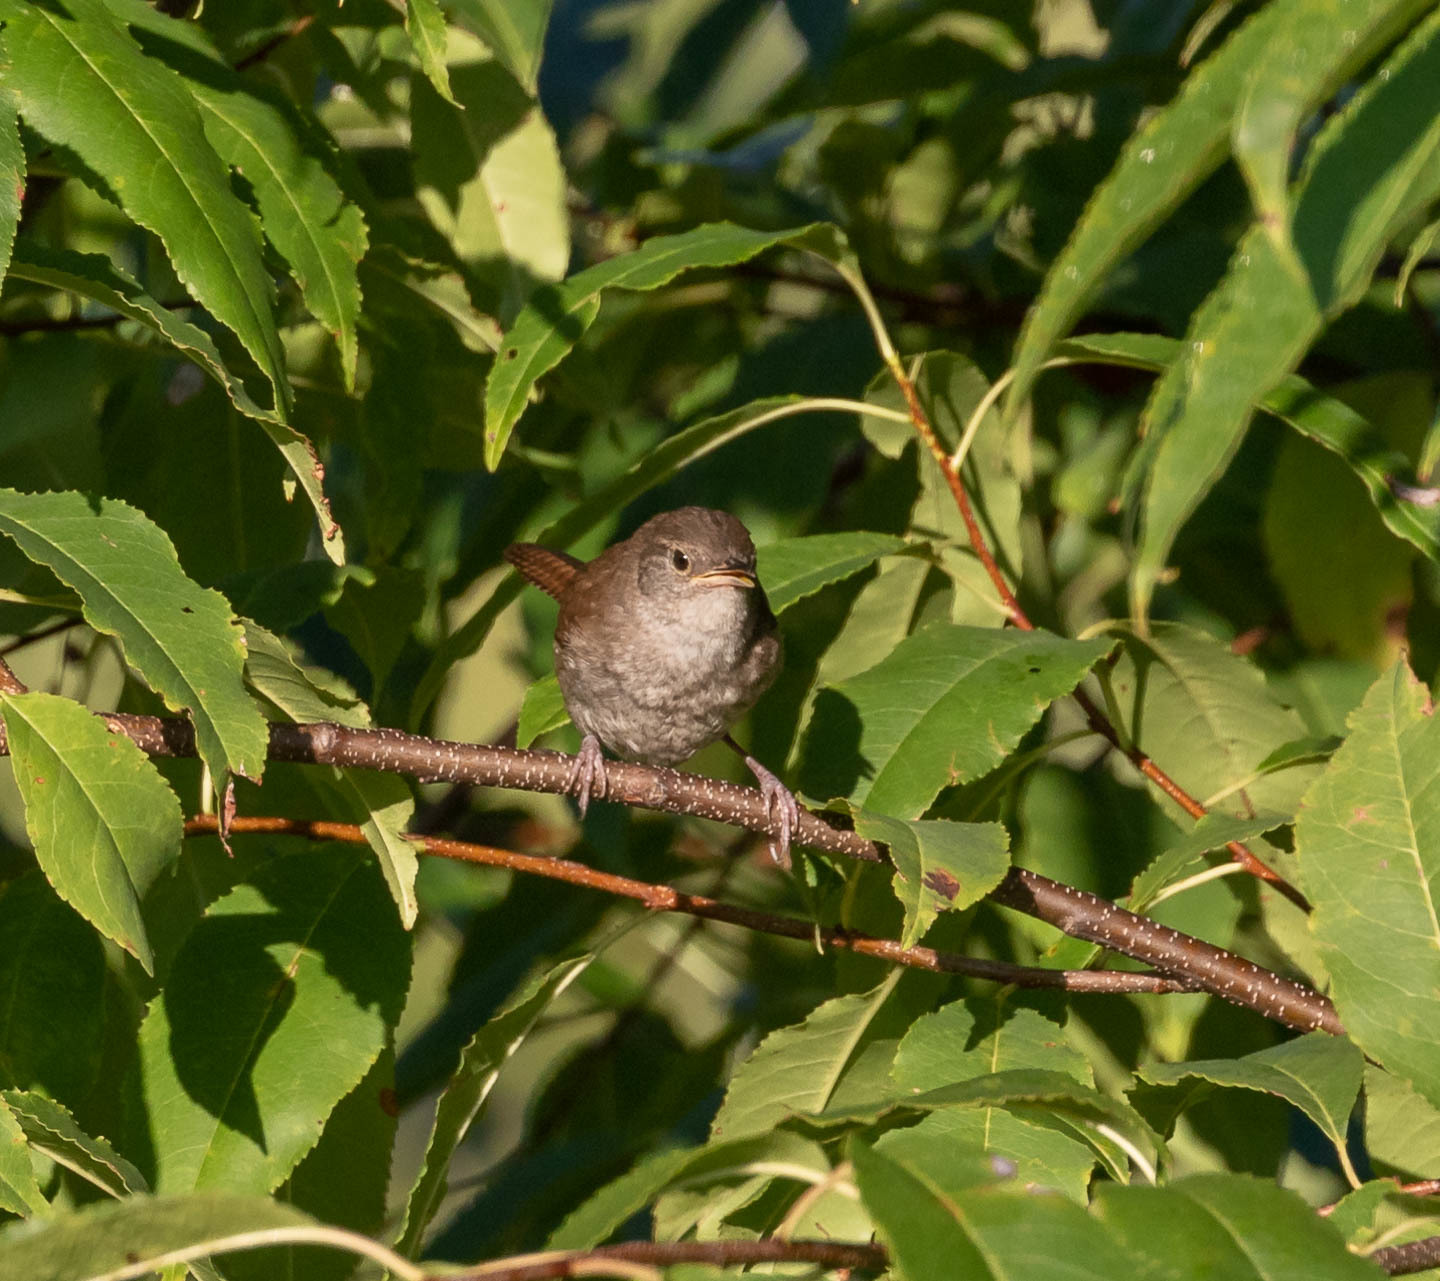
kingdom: Animalia
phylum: Chordata
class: Aves
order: Passeriformes
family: Troglodytidae
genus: Troglodytes
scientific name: Troglodytes aedon
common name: House wren
